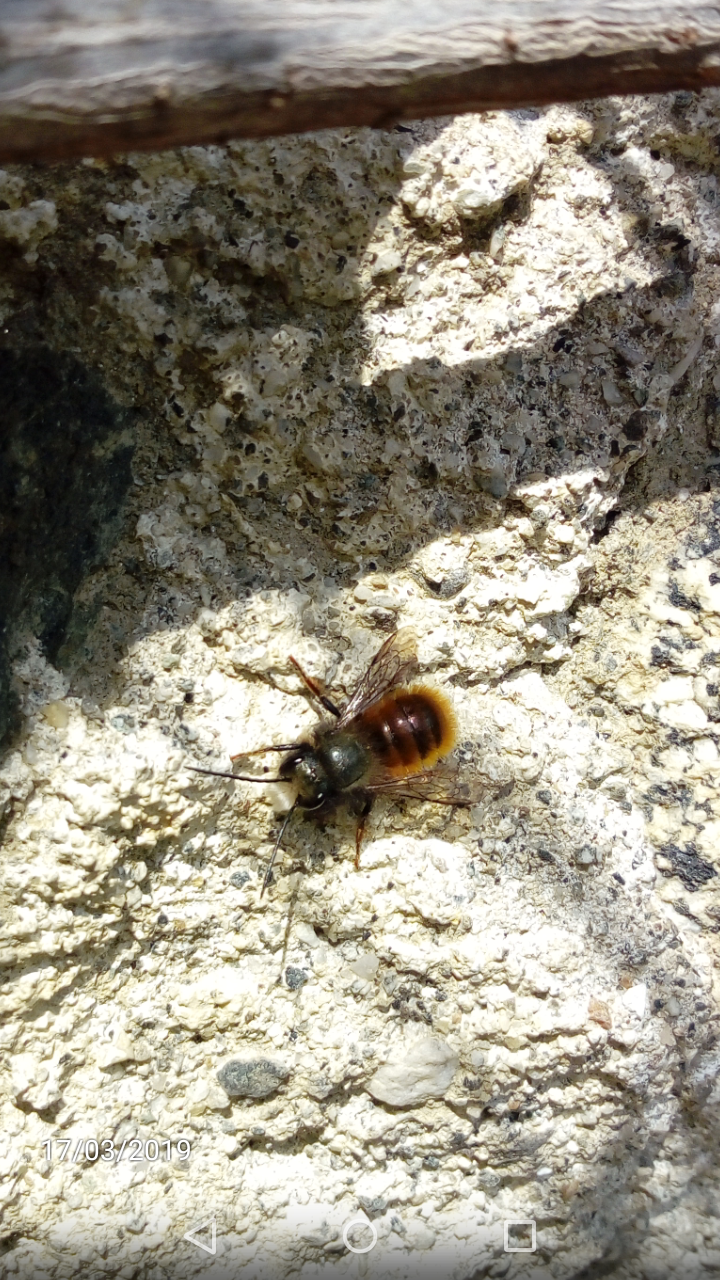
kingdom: Animalia
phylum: Arthropoda
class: Insecta
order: Hymenoptera
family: Megachilidae
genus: Osmia
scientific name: Osmia cornuta
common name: Mason bee
